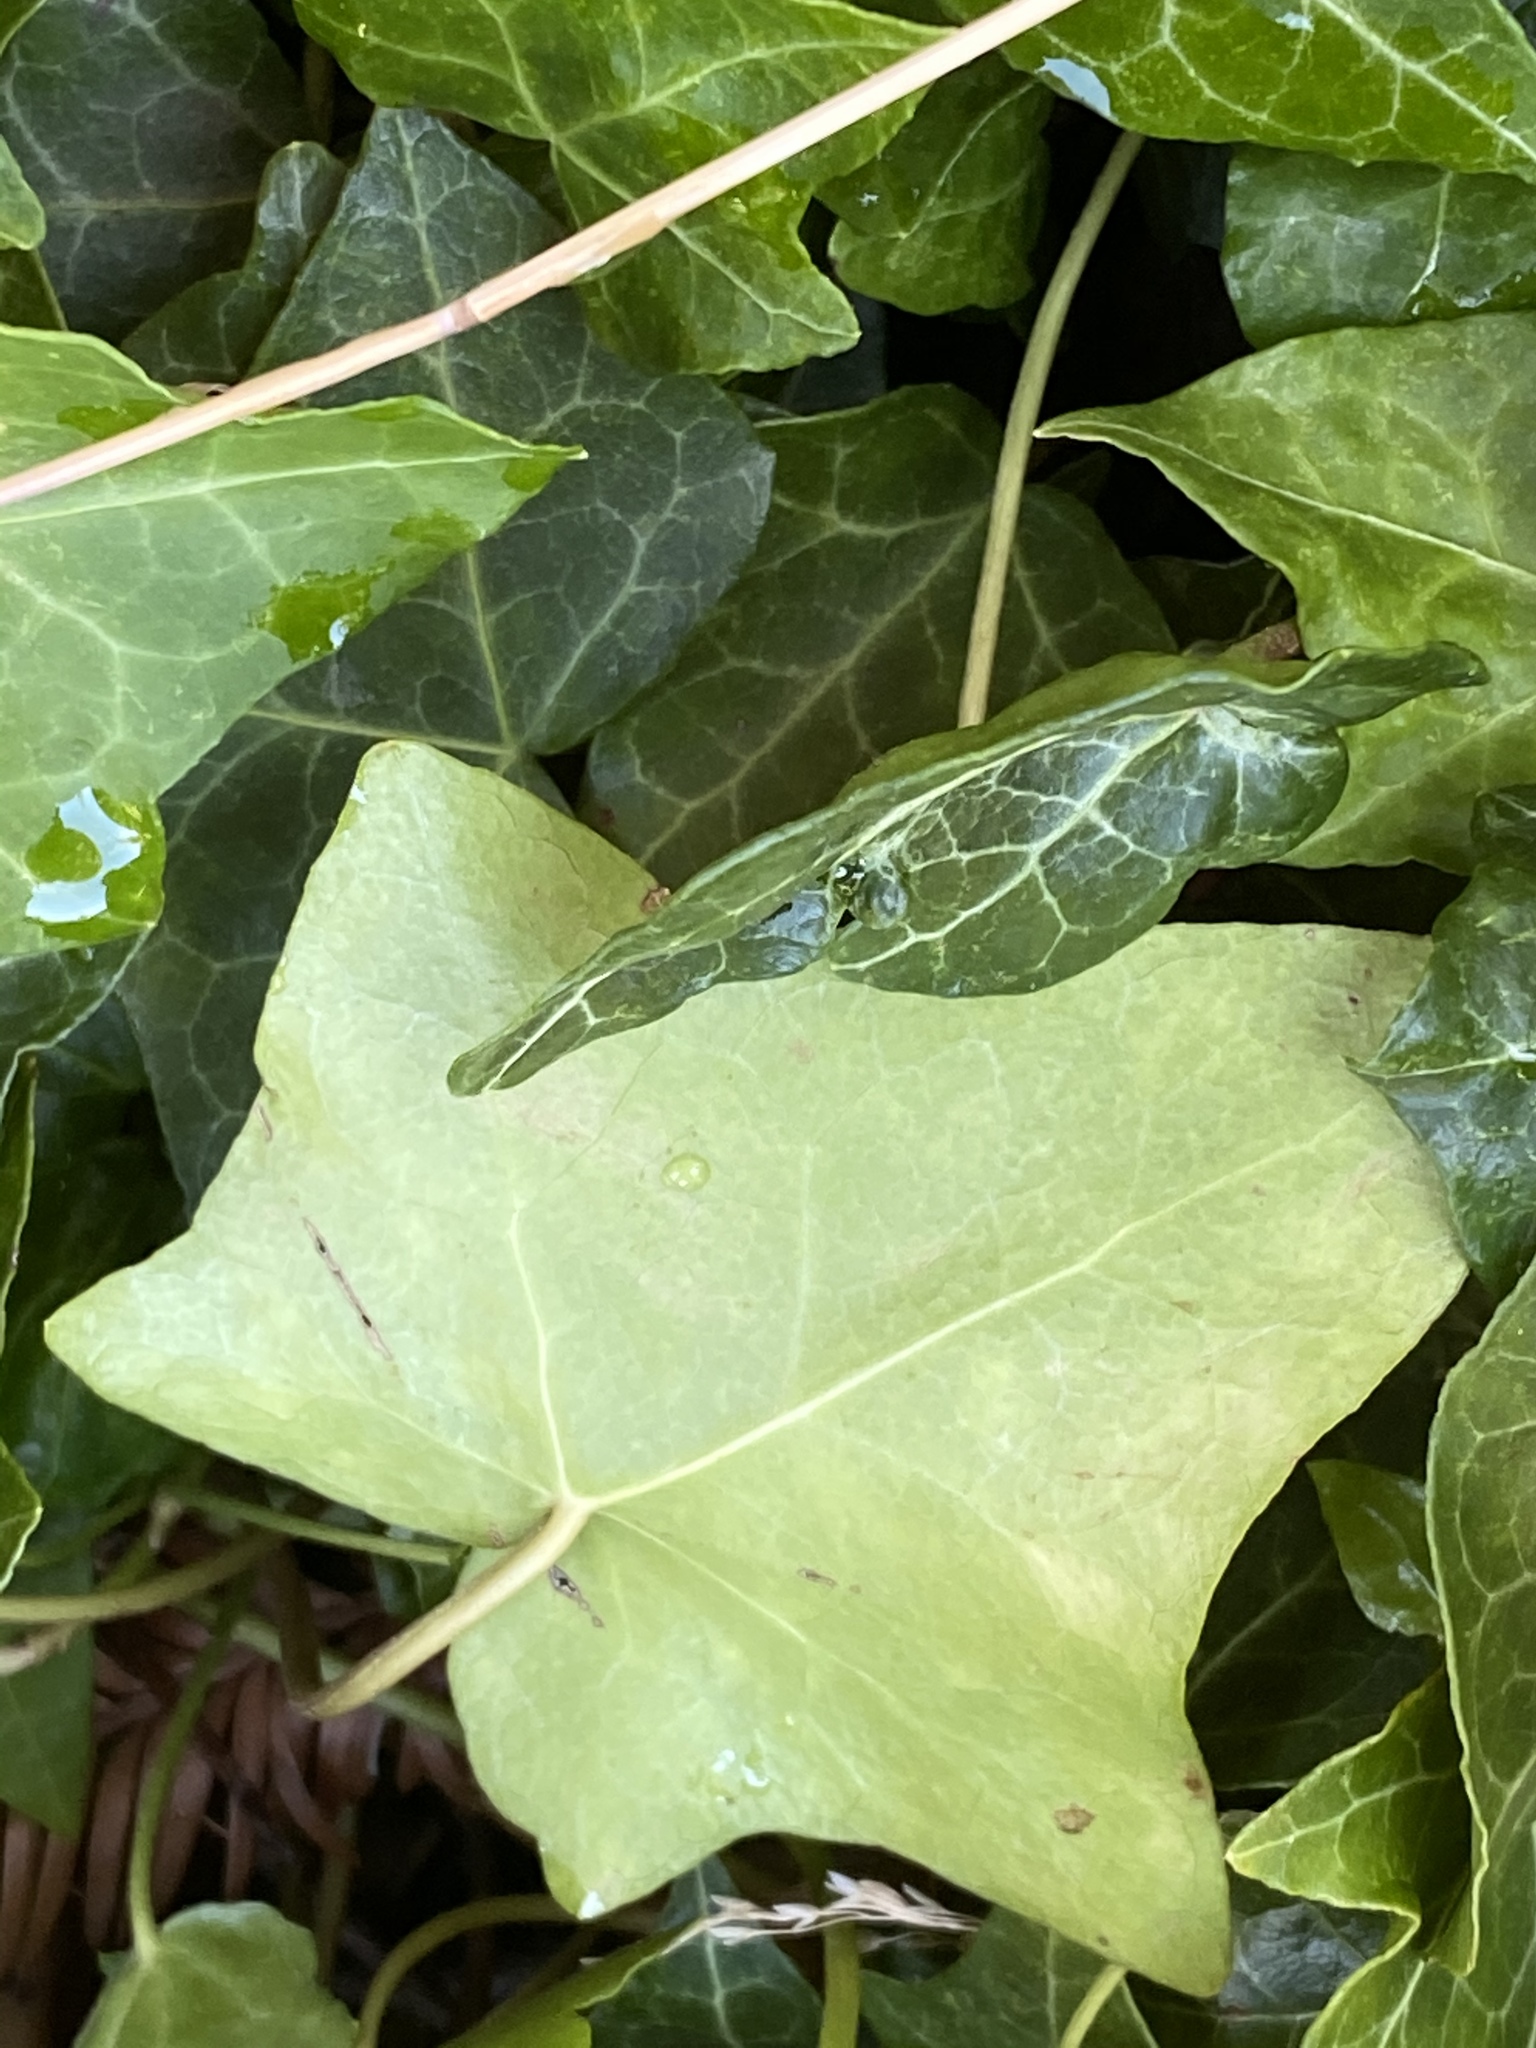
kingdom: Plantae
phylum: Tracheophyta
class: Magnoliopsida
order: Apiales
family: Araliaceae
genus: Hedera
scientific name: Hedera helix
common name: Ivy
